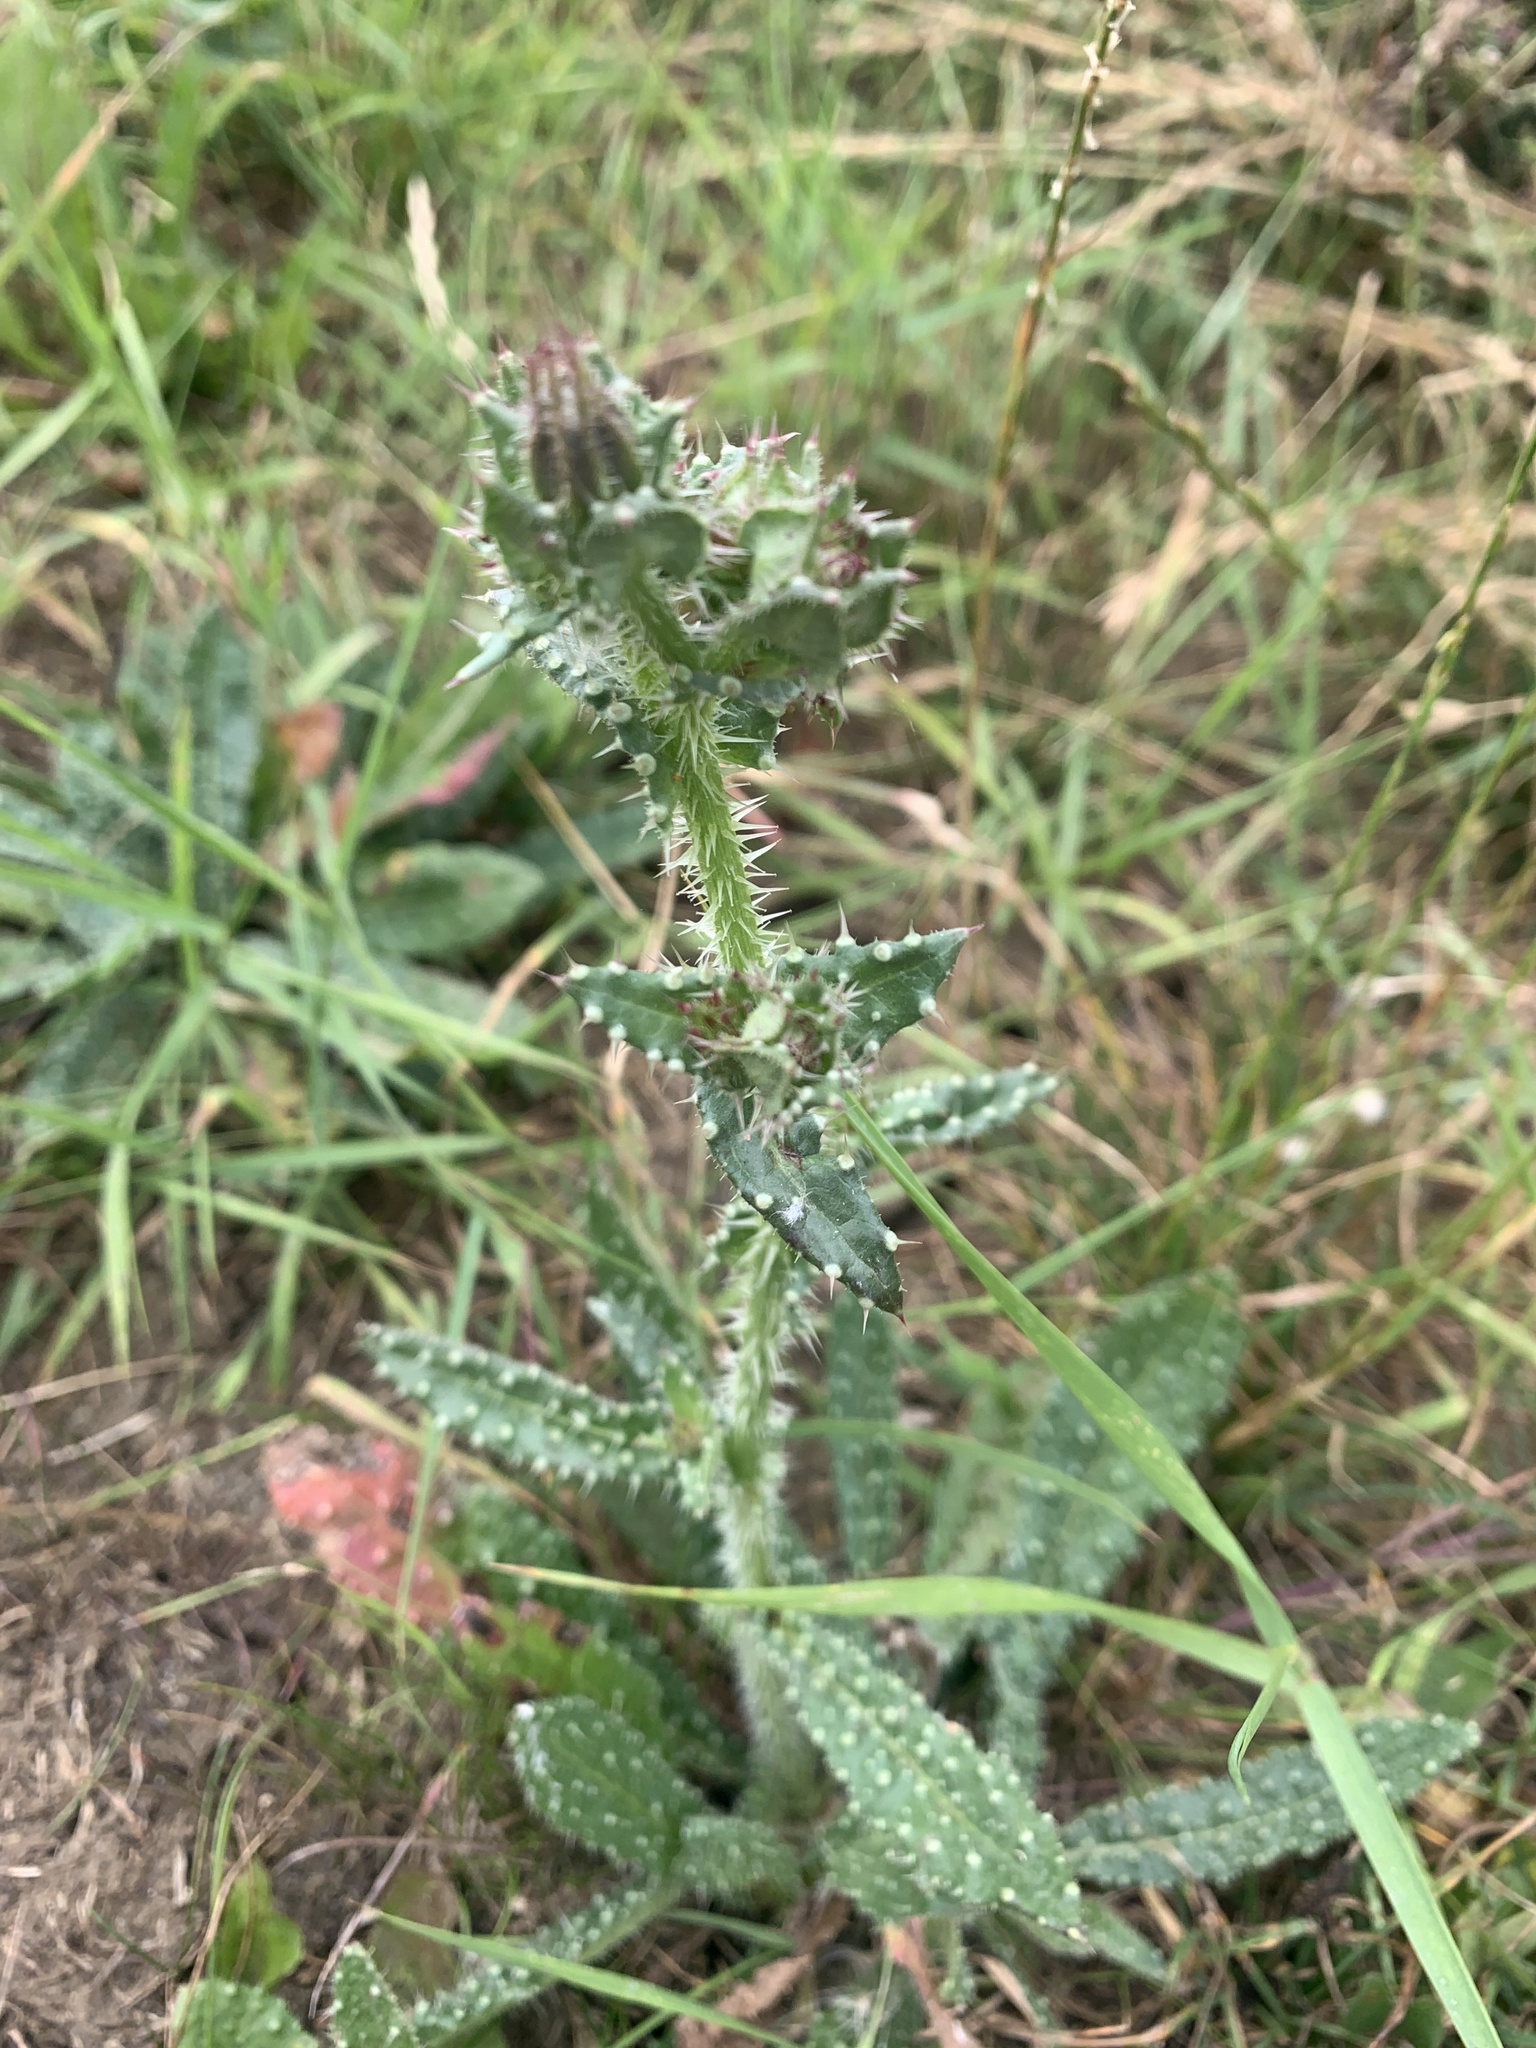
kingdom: Plantae
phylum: Tracheophyta
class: Magnoliopsida
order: Boraginales
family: Boraginaceae
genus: Lycopsis
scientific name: Lycopsis arvensis
